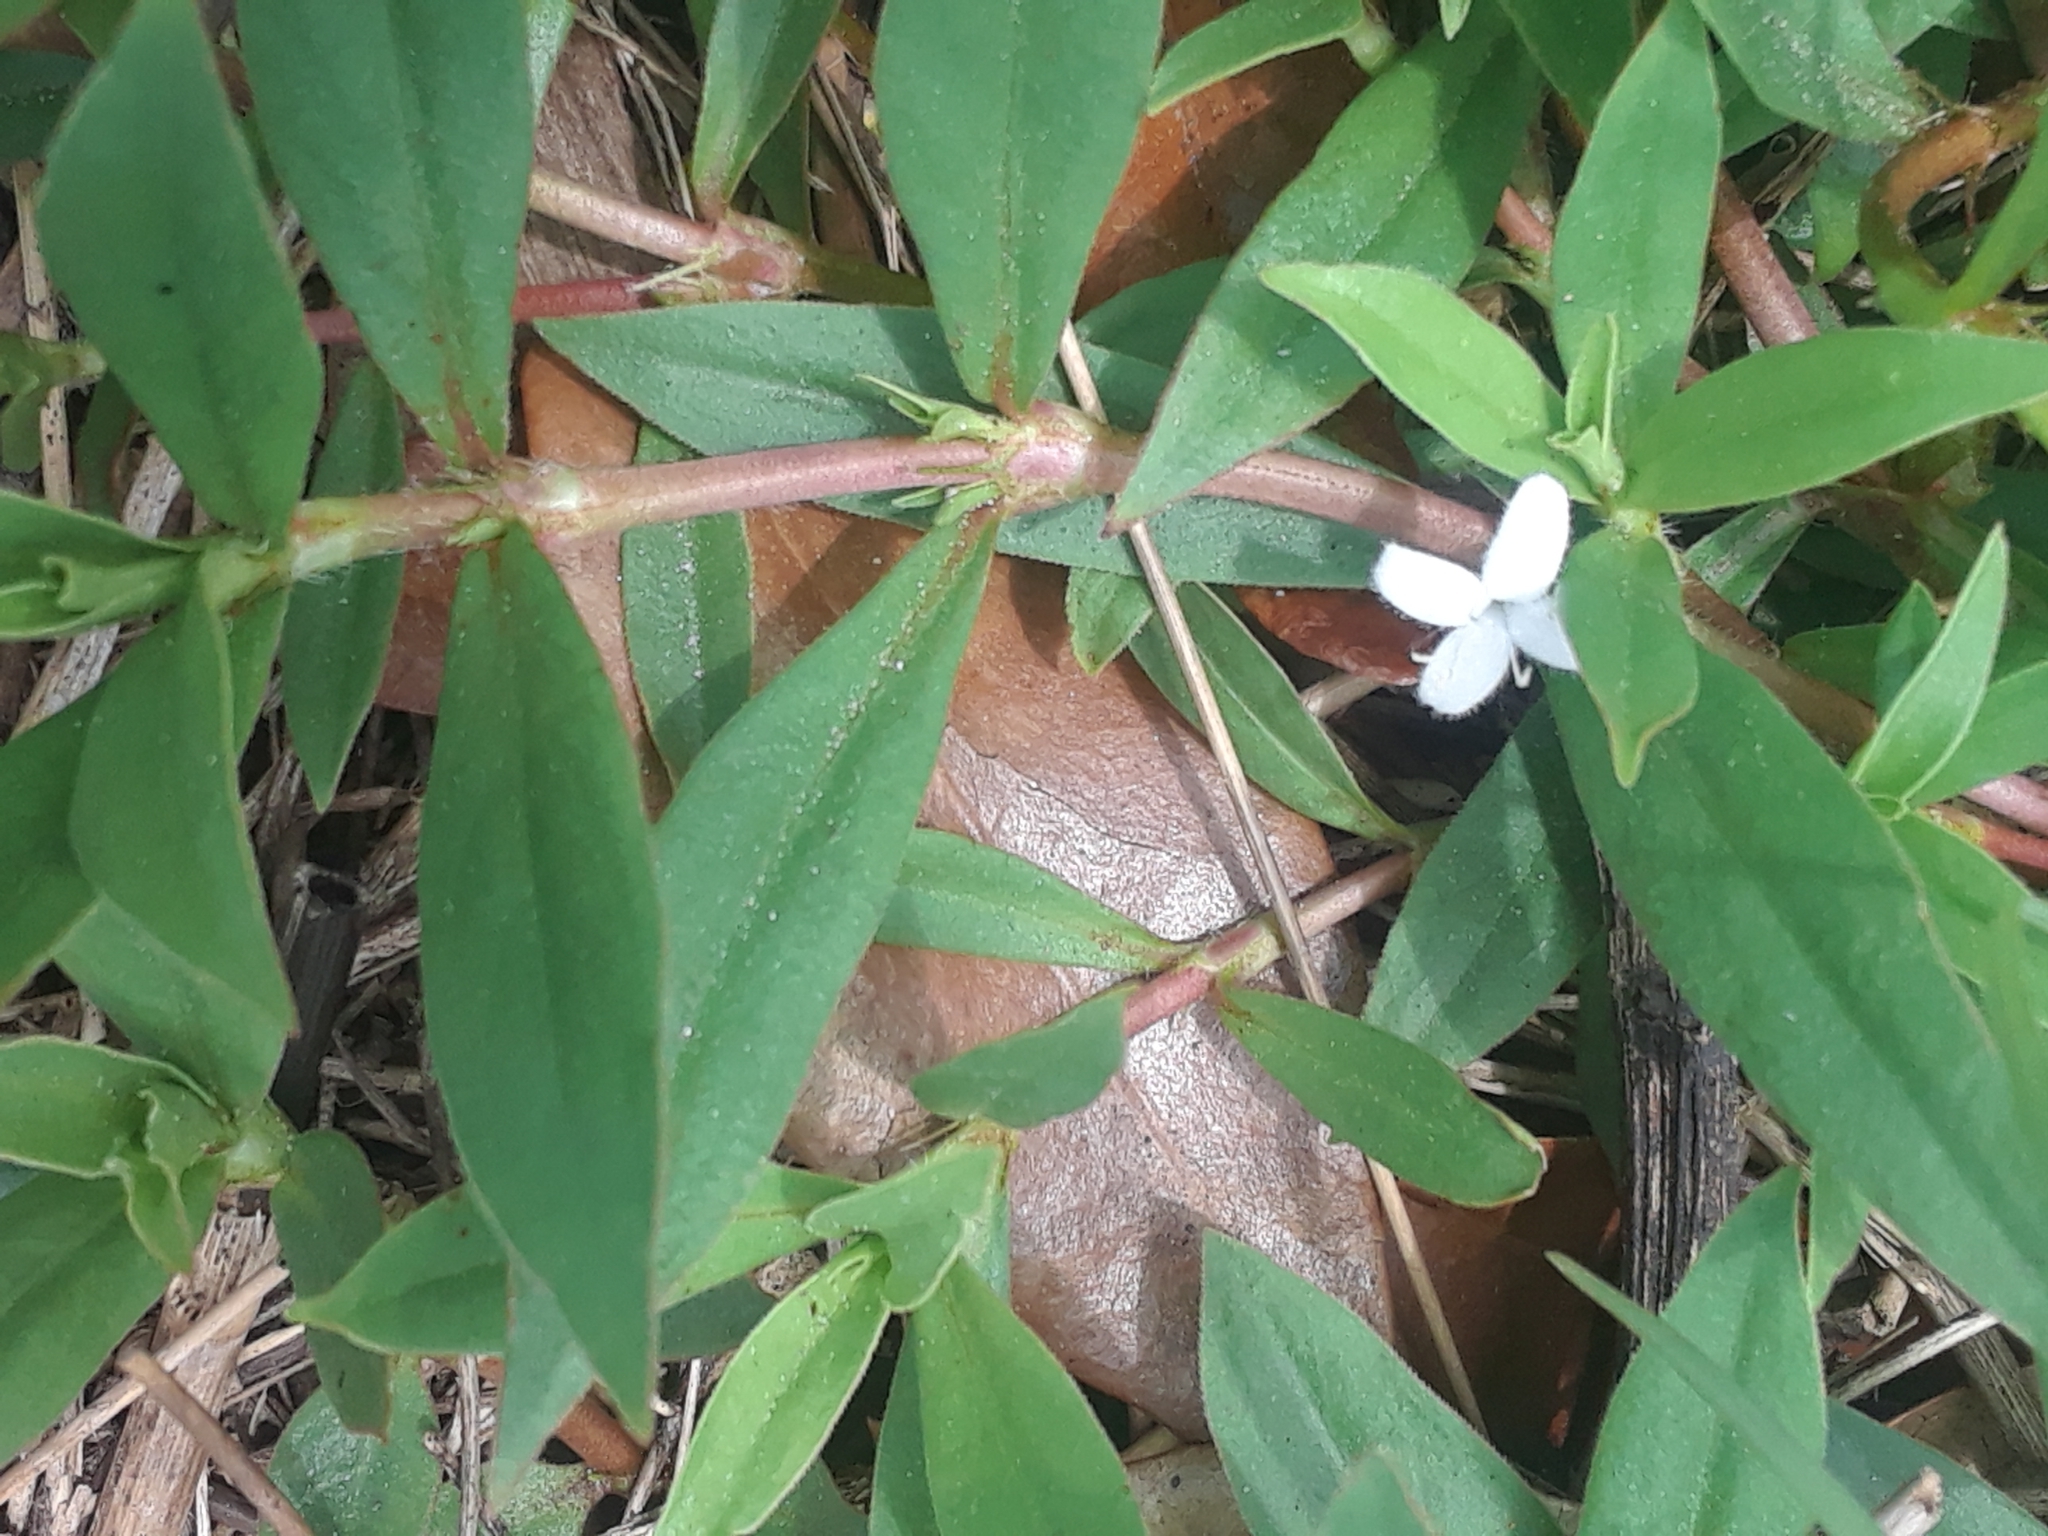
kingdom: Plantae
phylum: Tracheophyta
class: Magnoliopsida
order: Gentianales
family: Rubiaceae
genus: Diodia
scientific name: Diodia virginiana
